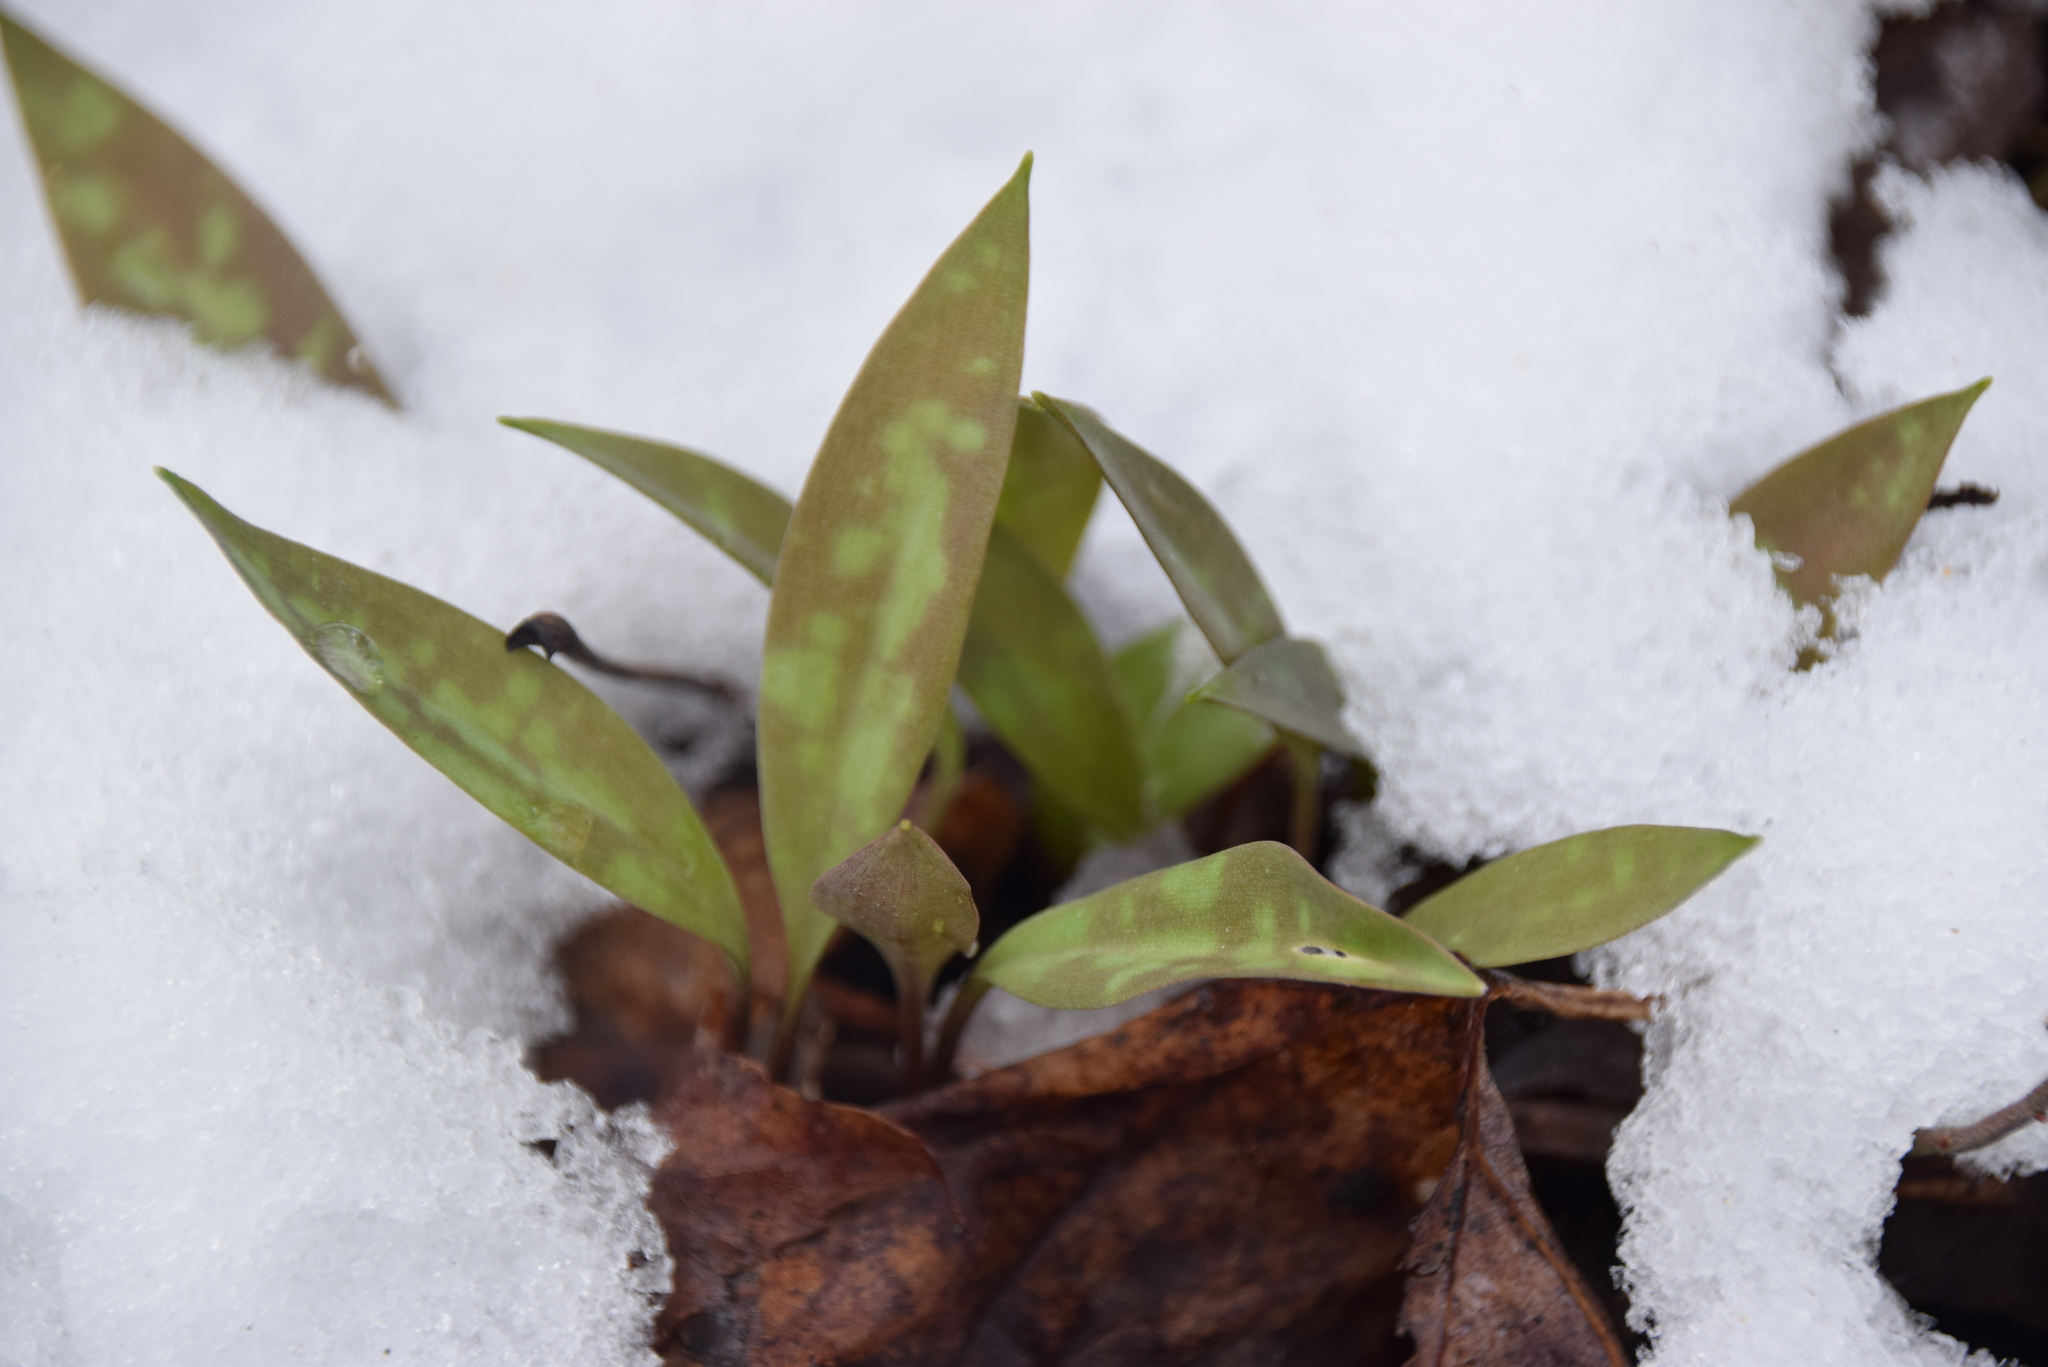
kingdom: Plantae
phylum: Tracheophyta
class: Liliopsida
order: Liliales
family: Liliaceae
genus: Erythronium
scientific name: Erythronium americanum
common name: Yellow adder's-tongue
